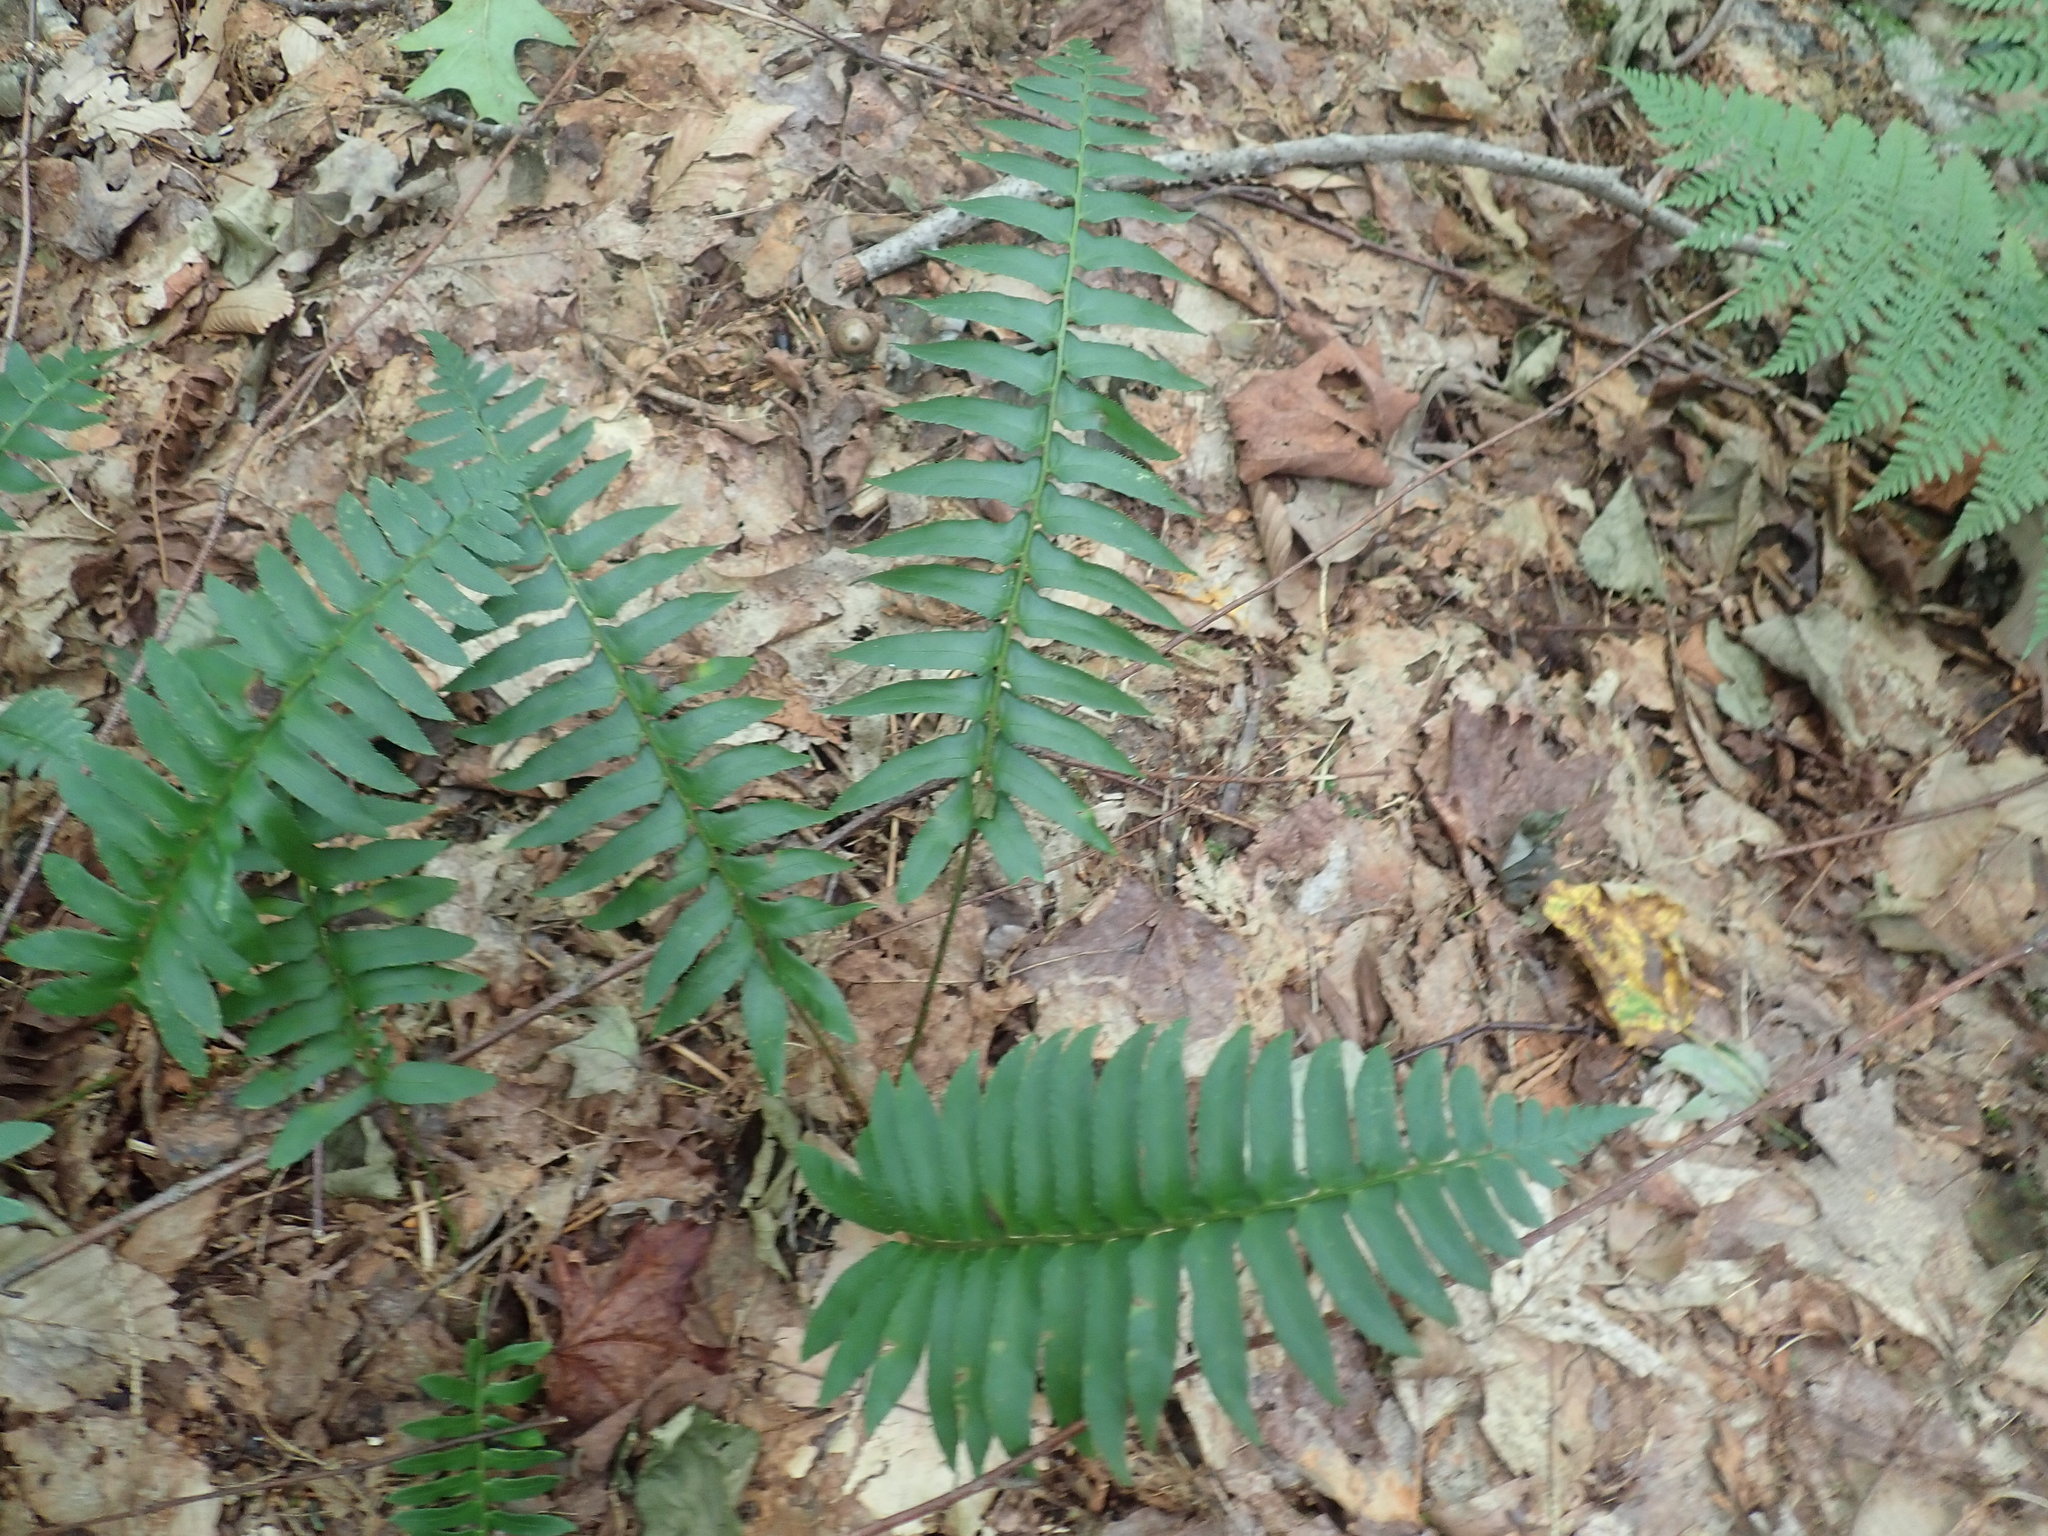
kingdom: Plantae
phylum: Tracheophyta
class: Polypodiopsida
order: Polypodiales
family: Dryopteridaceae
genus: Polystichum
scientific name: Polystichum acrostichoides
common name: Christmas fern
